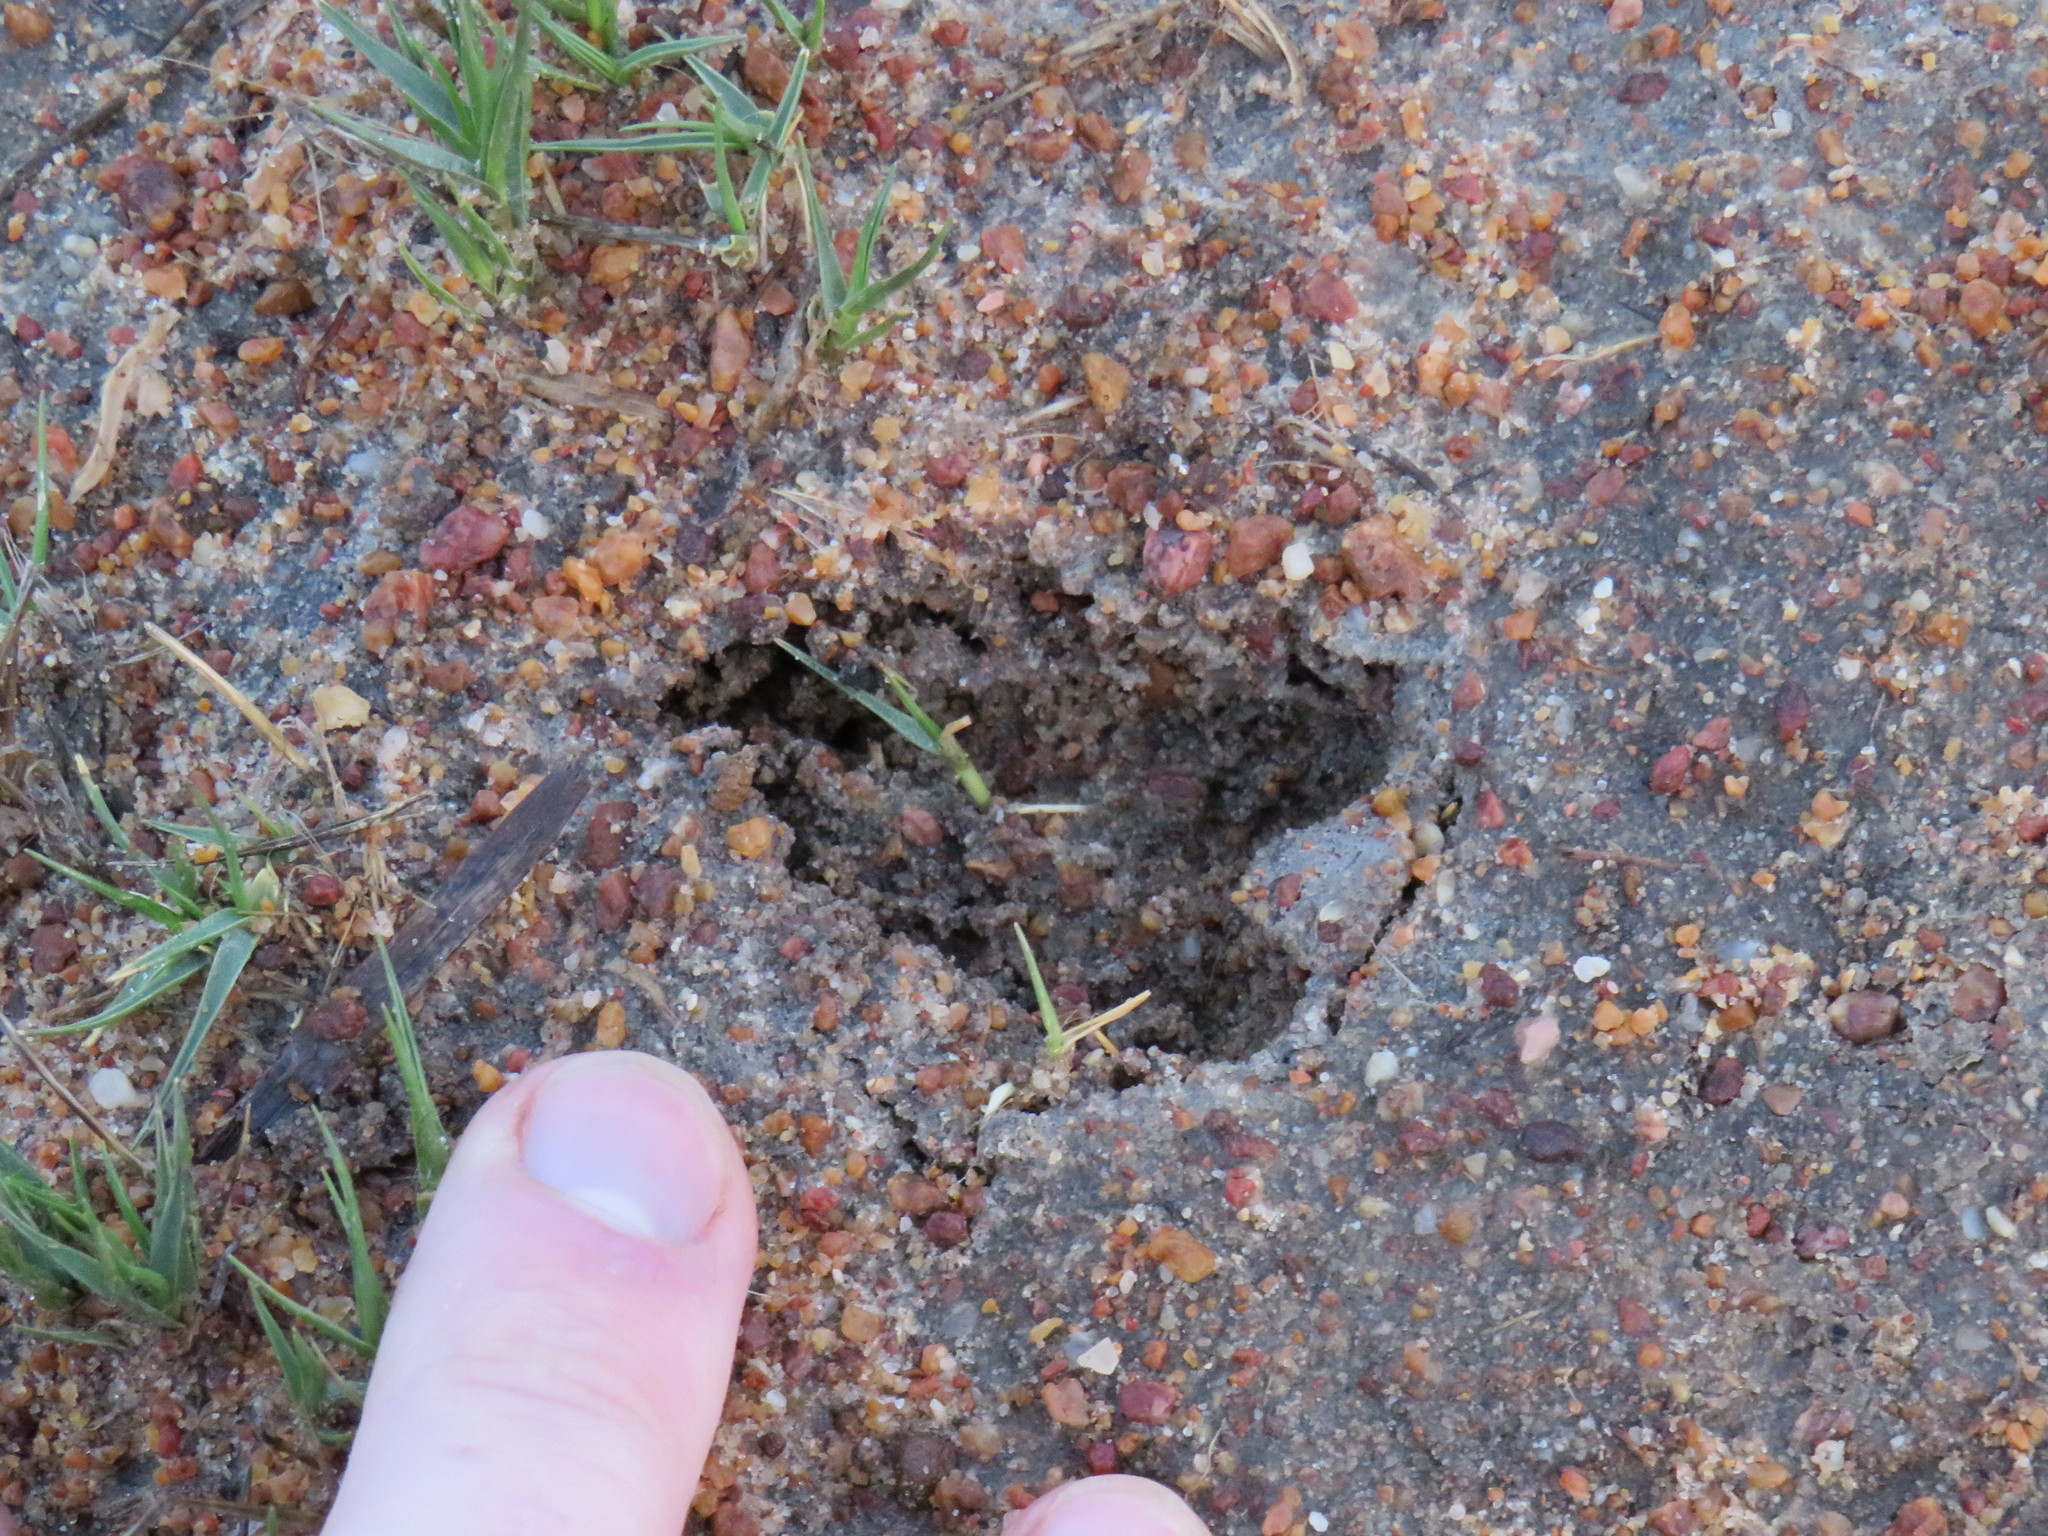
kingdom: Animalia
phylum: Chordata
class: Mammalia
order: Artiodactyla
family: Bovidae
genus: Raphicerus
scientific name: Raphicerus campestris
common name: Steenbok
